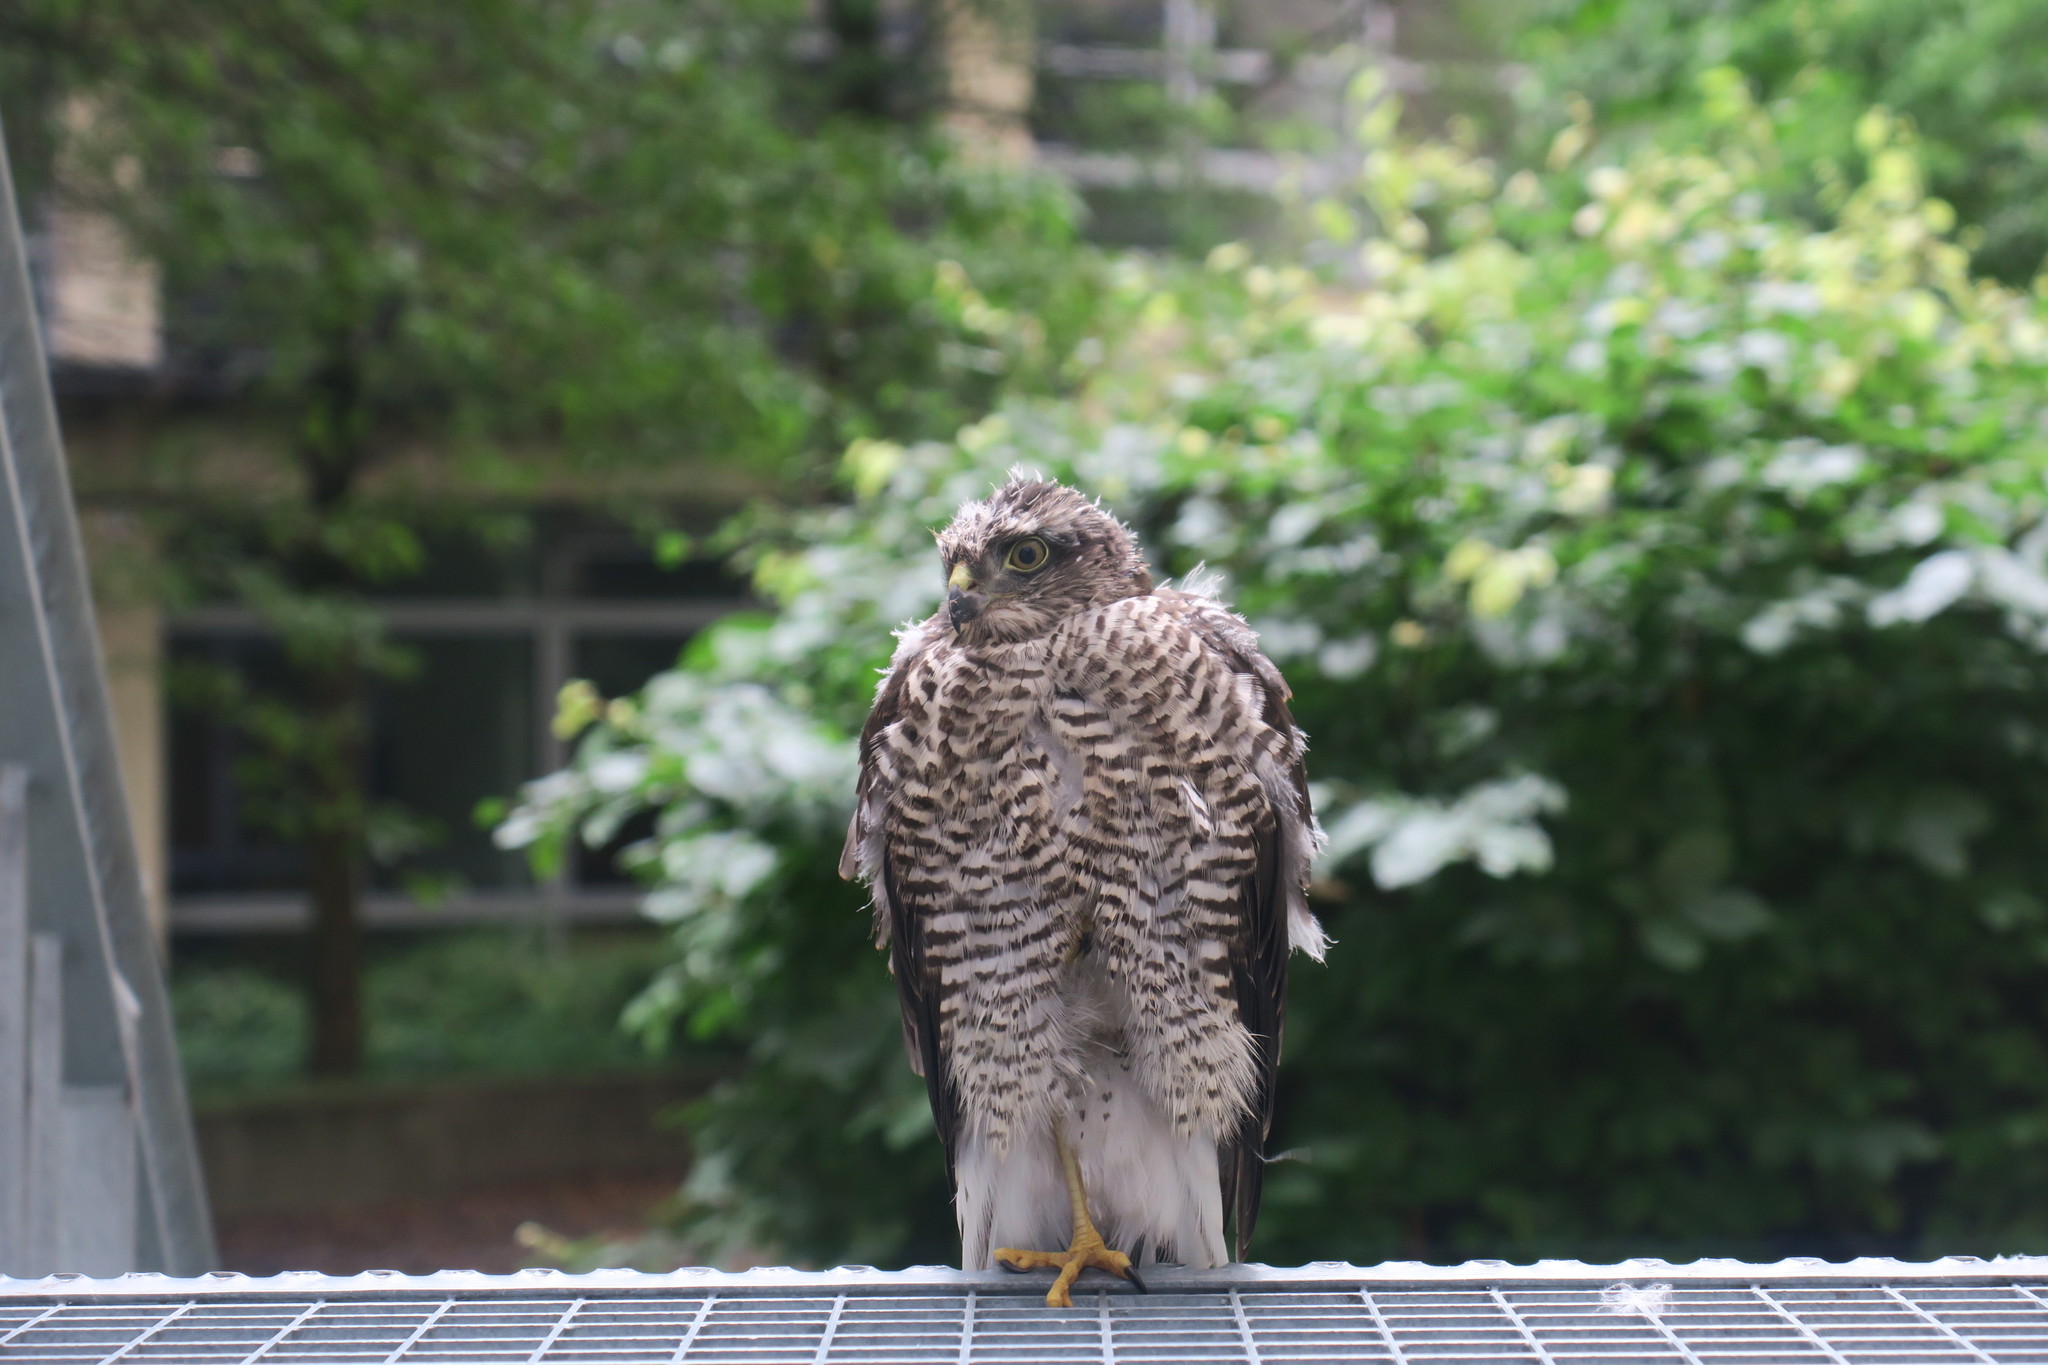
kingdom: Animalia
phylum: Chordata
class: Aves
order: Accipitriformes
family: Accipitridae
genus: Accipiter
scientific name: Accipiter nisus
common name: Eurasian sparrowhawk
